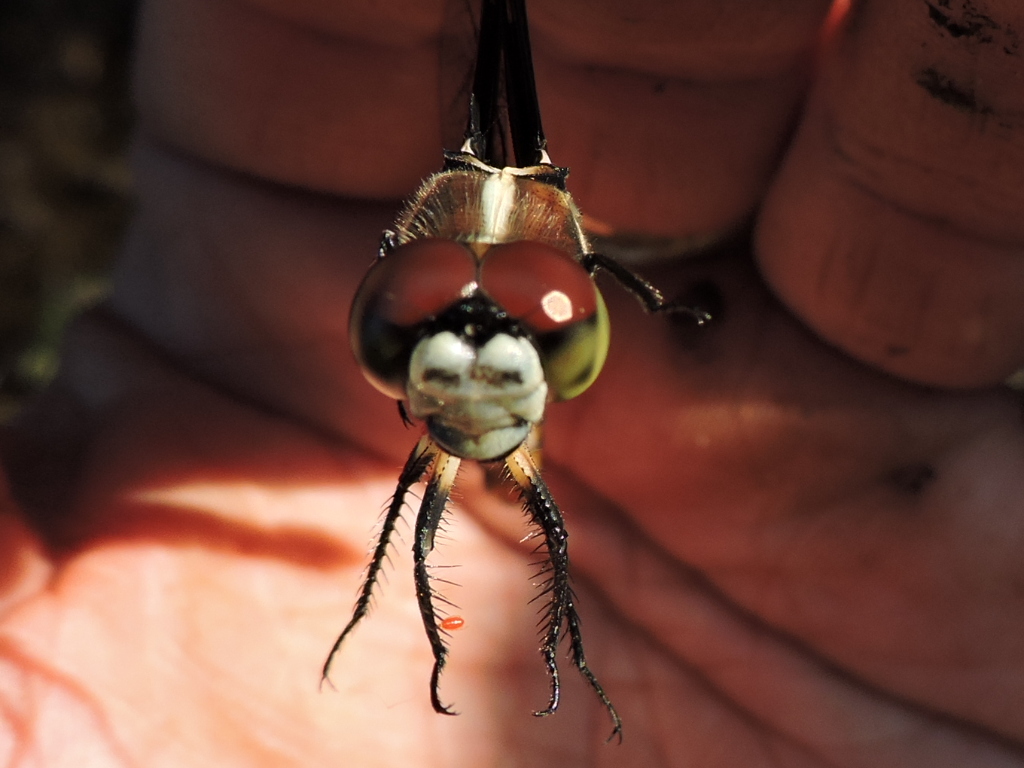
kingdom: Animalia
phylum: Arthropoda
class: Insecta
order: Odonata
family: Libellulidae
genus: Libellula
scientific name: Libellula vibrans
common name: Great blue skimmer
